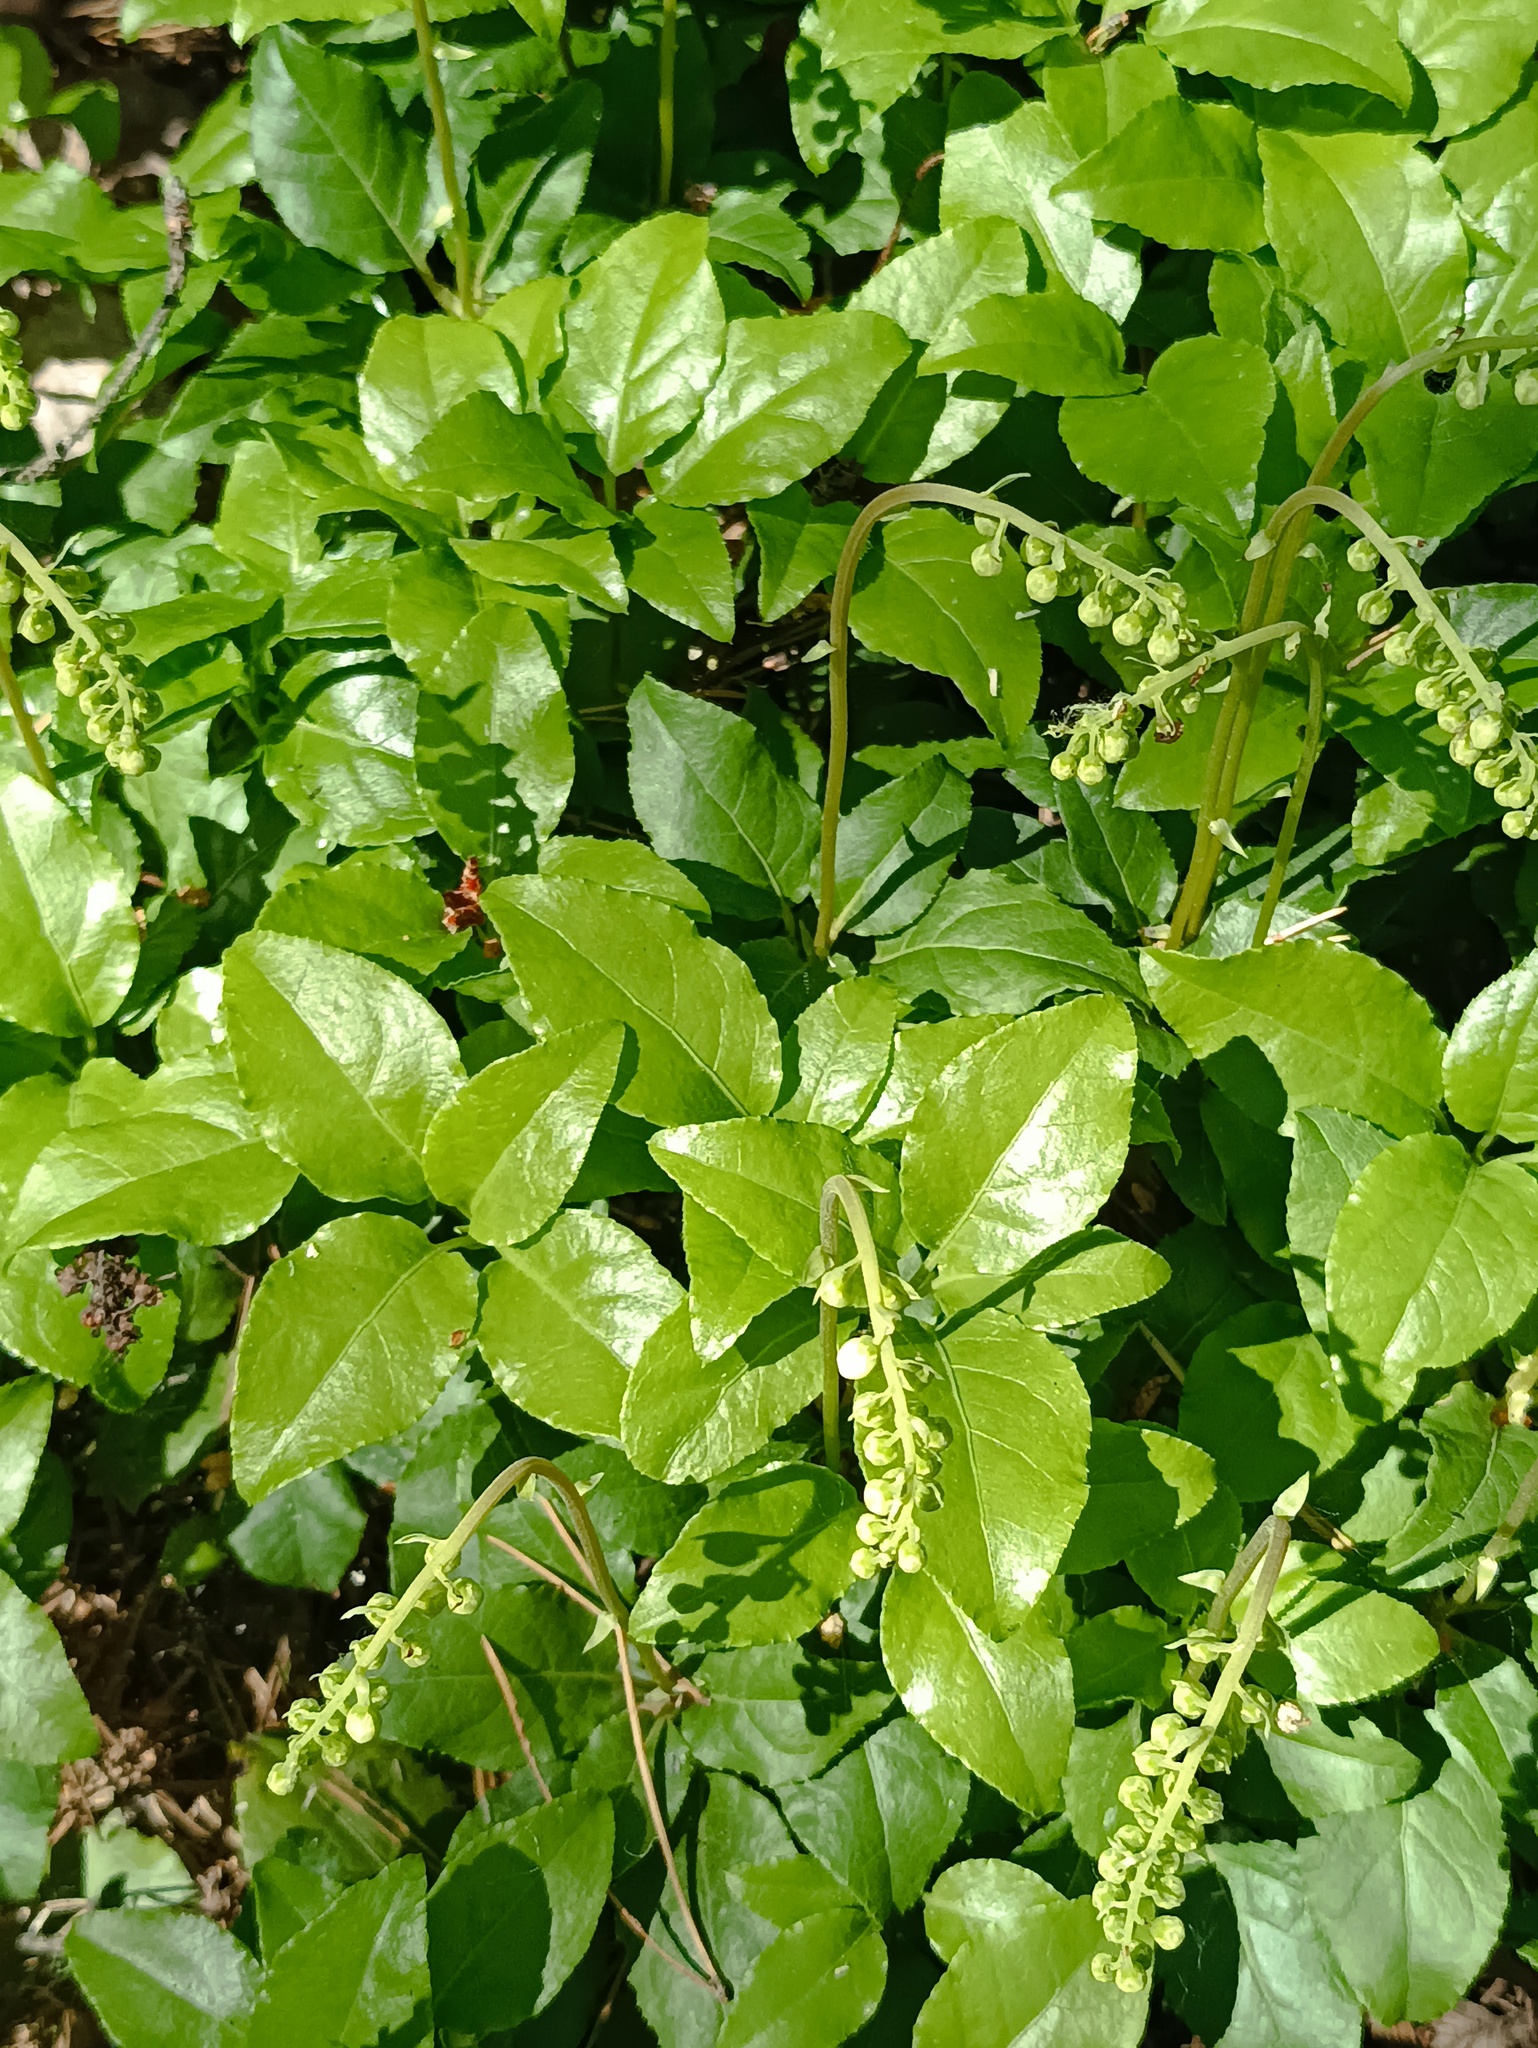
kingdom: Plantae
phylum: Tracheophyta
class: Magnoliopsida
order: Ericales
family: Ericaceae
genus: Orthilia
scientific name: Orthilia secunda
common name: One-sided orthilia
